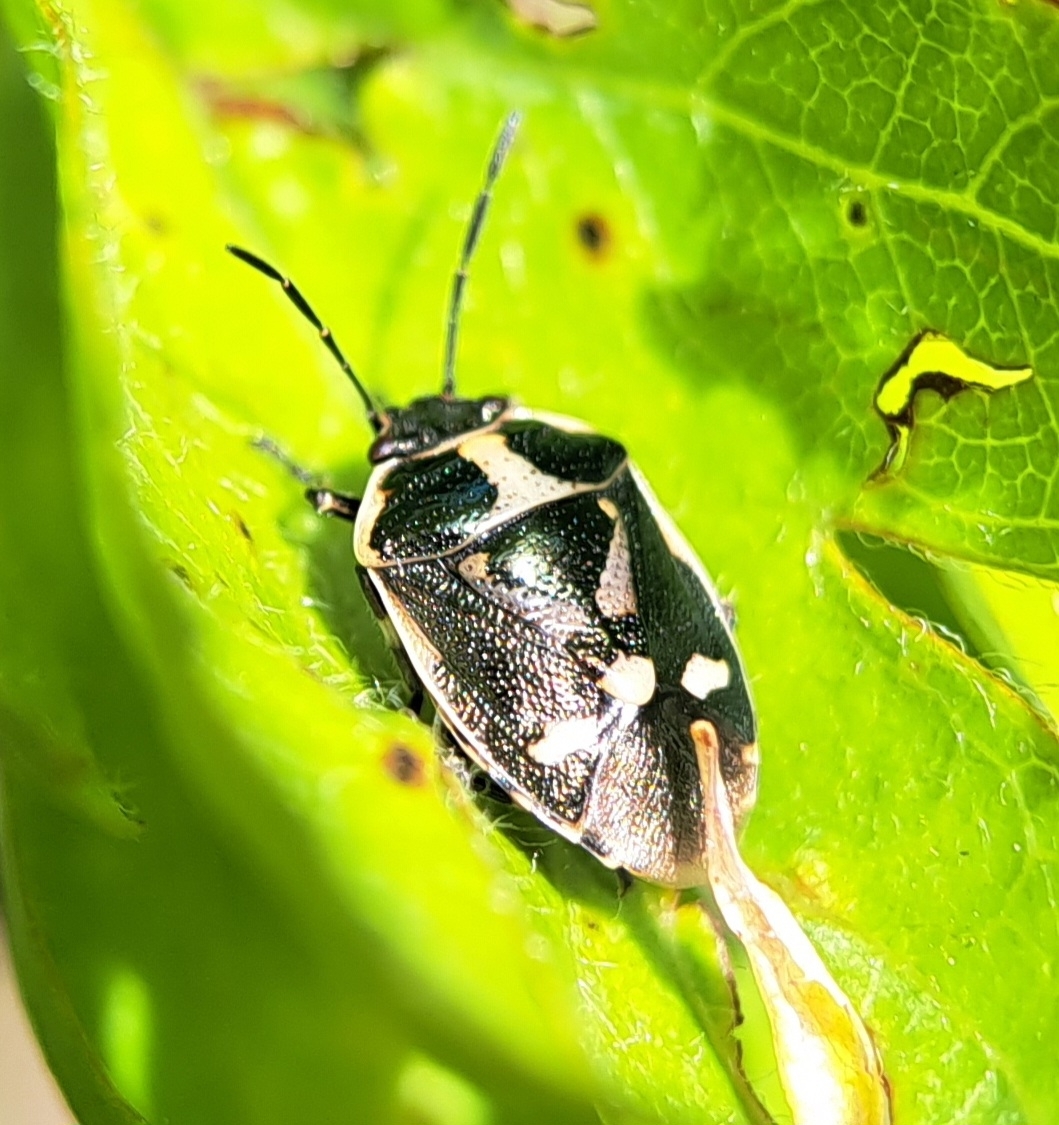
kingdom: Animalia
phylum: Arthropoda
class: Insecta
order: Hemiptera
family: Pentatomidae
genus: Eurydema
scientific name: Eurydema oleracea
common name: Cabbage bug
